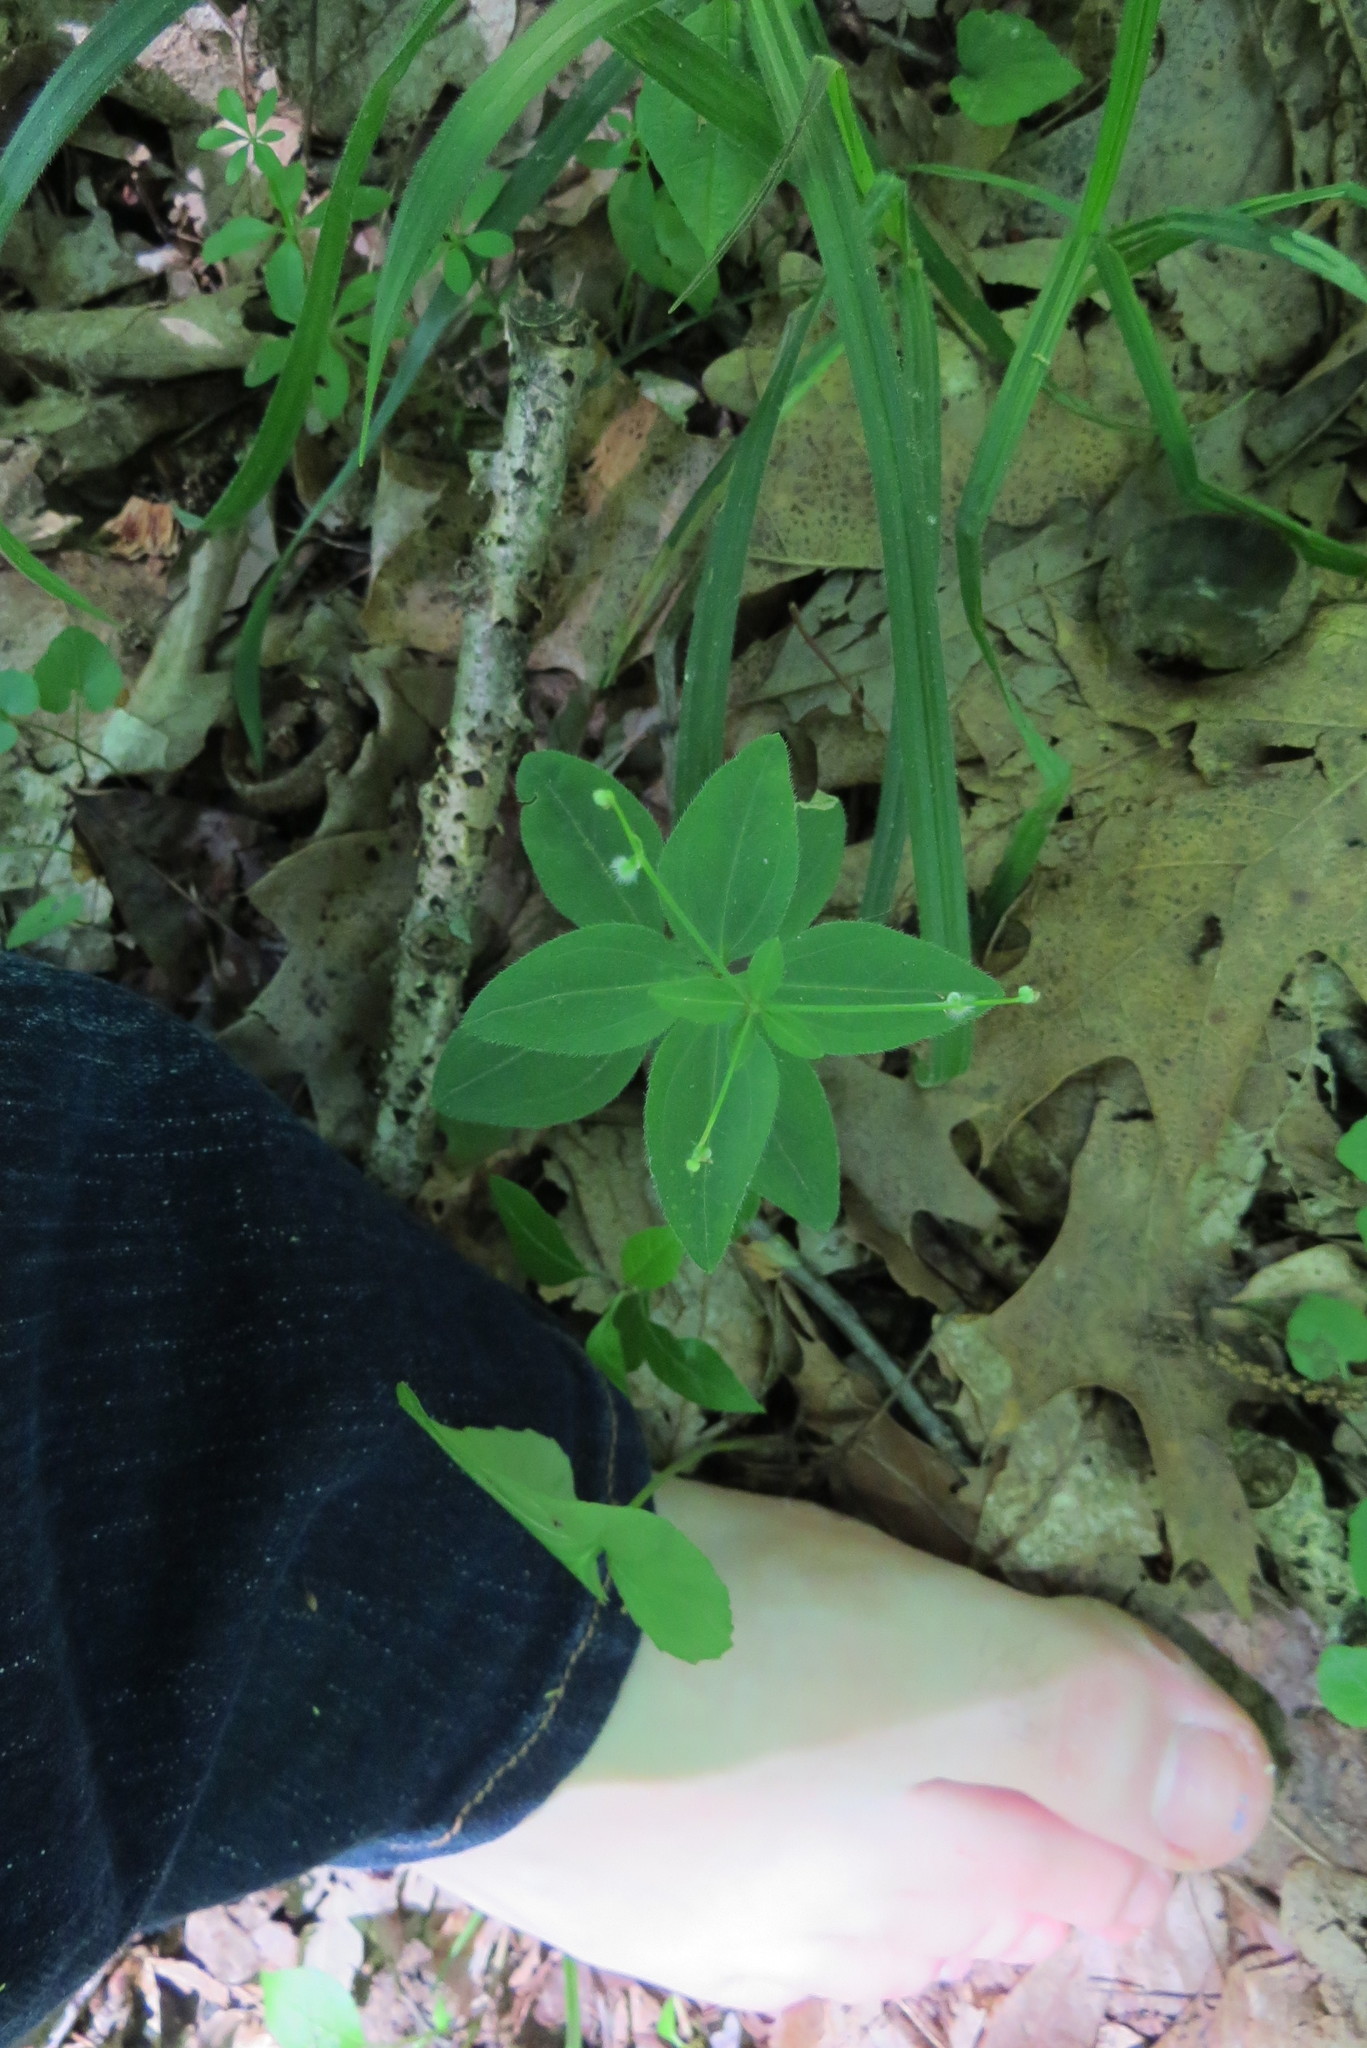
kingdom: Plantae
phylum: Tracheophyta
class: Magnoliopsida
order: Gentianales
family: Rubiaceae
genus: Galium
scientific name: Galium circaezans
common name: Forest bedstraw
